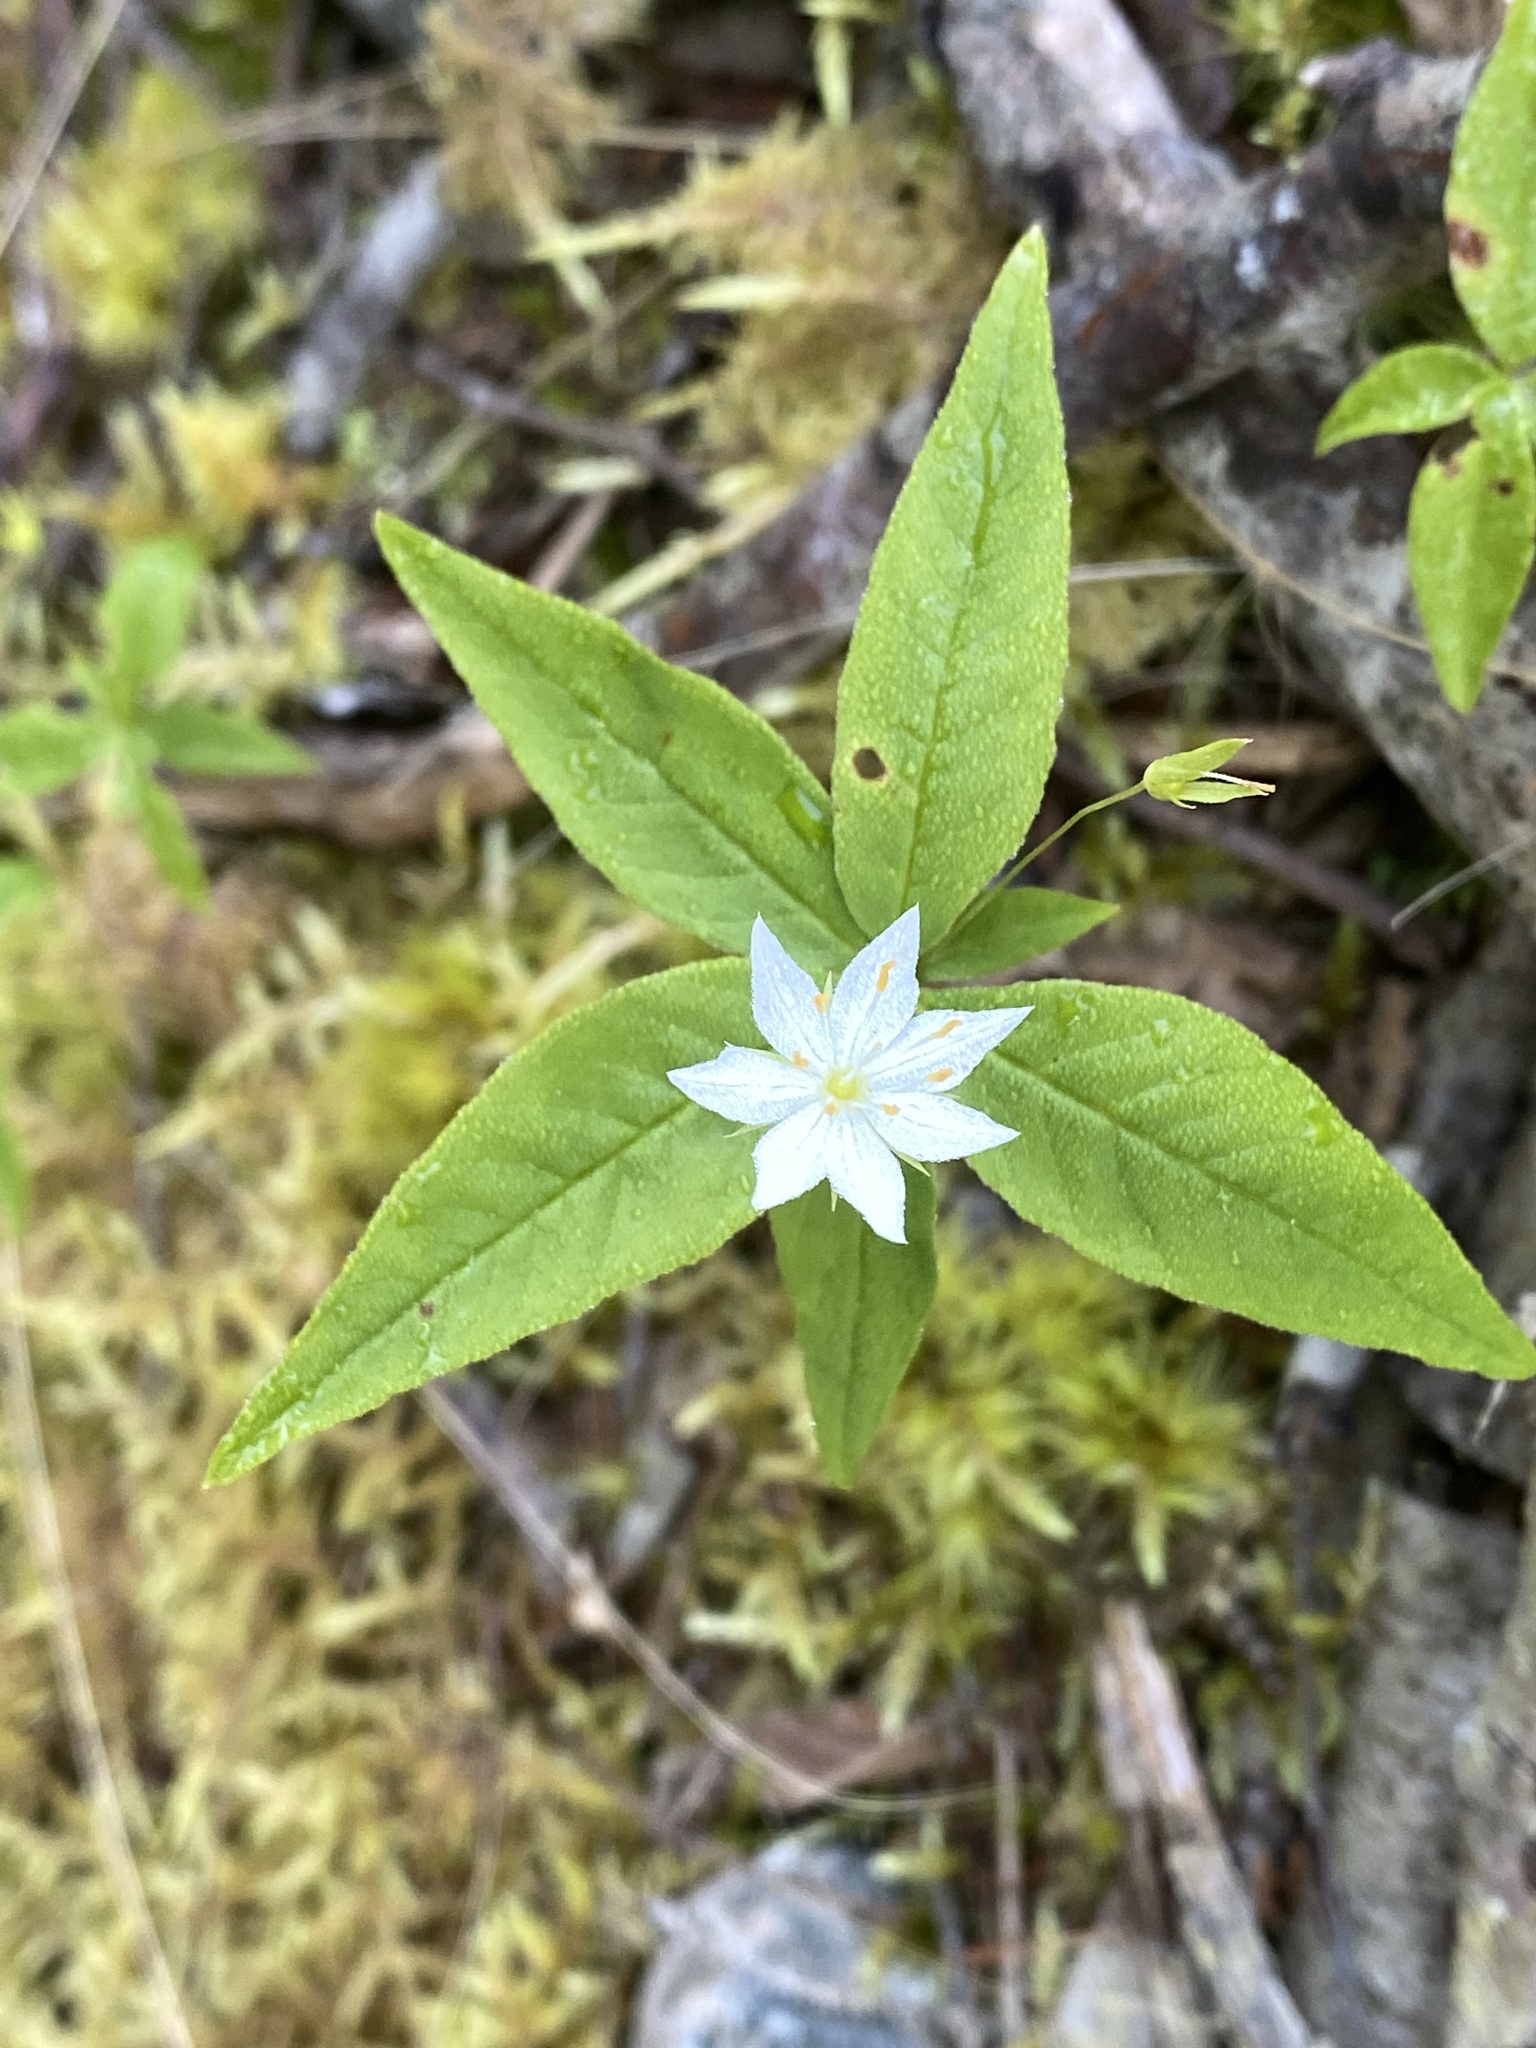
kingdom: Plantae
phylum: Tracheophyta
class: Magnoliopsida
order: Ericales
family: Primulaceae
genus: Lysimachia
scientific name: Lysimachia borealis
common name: American starflower
